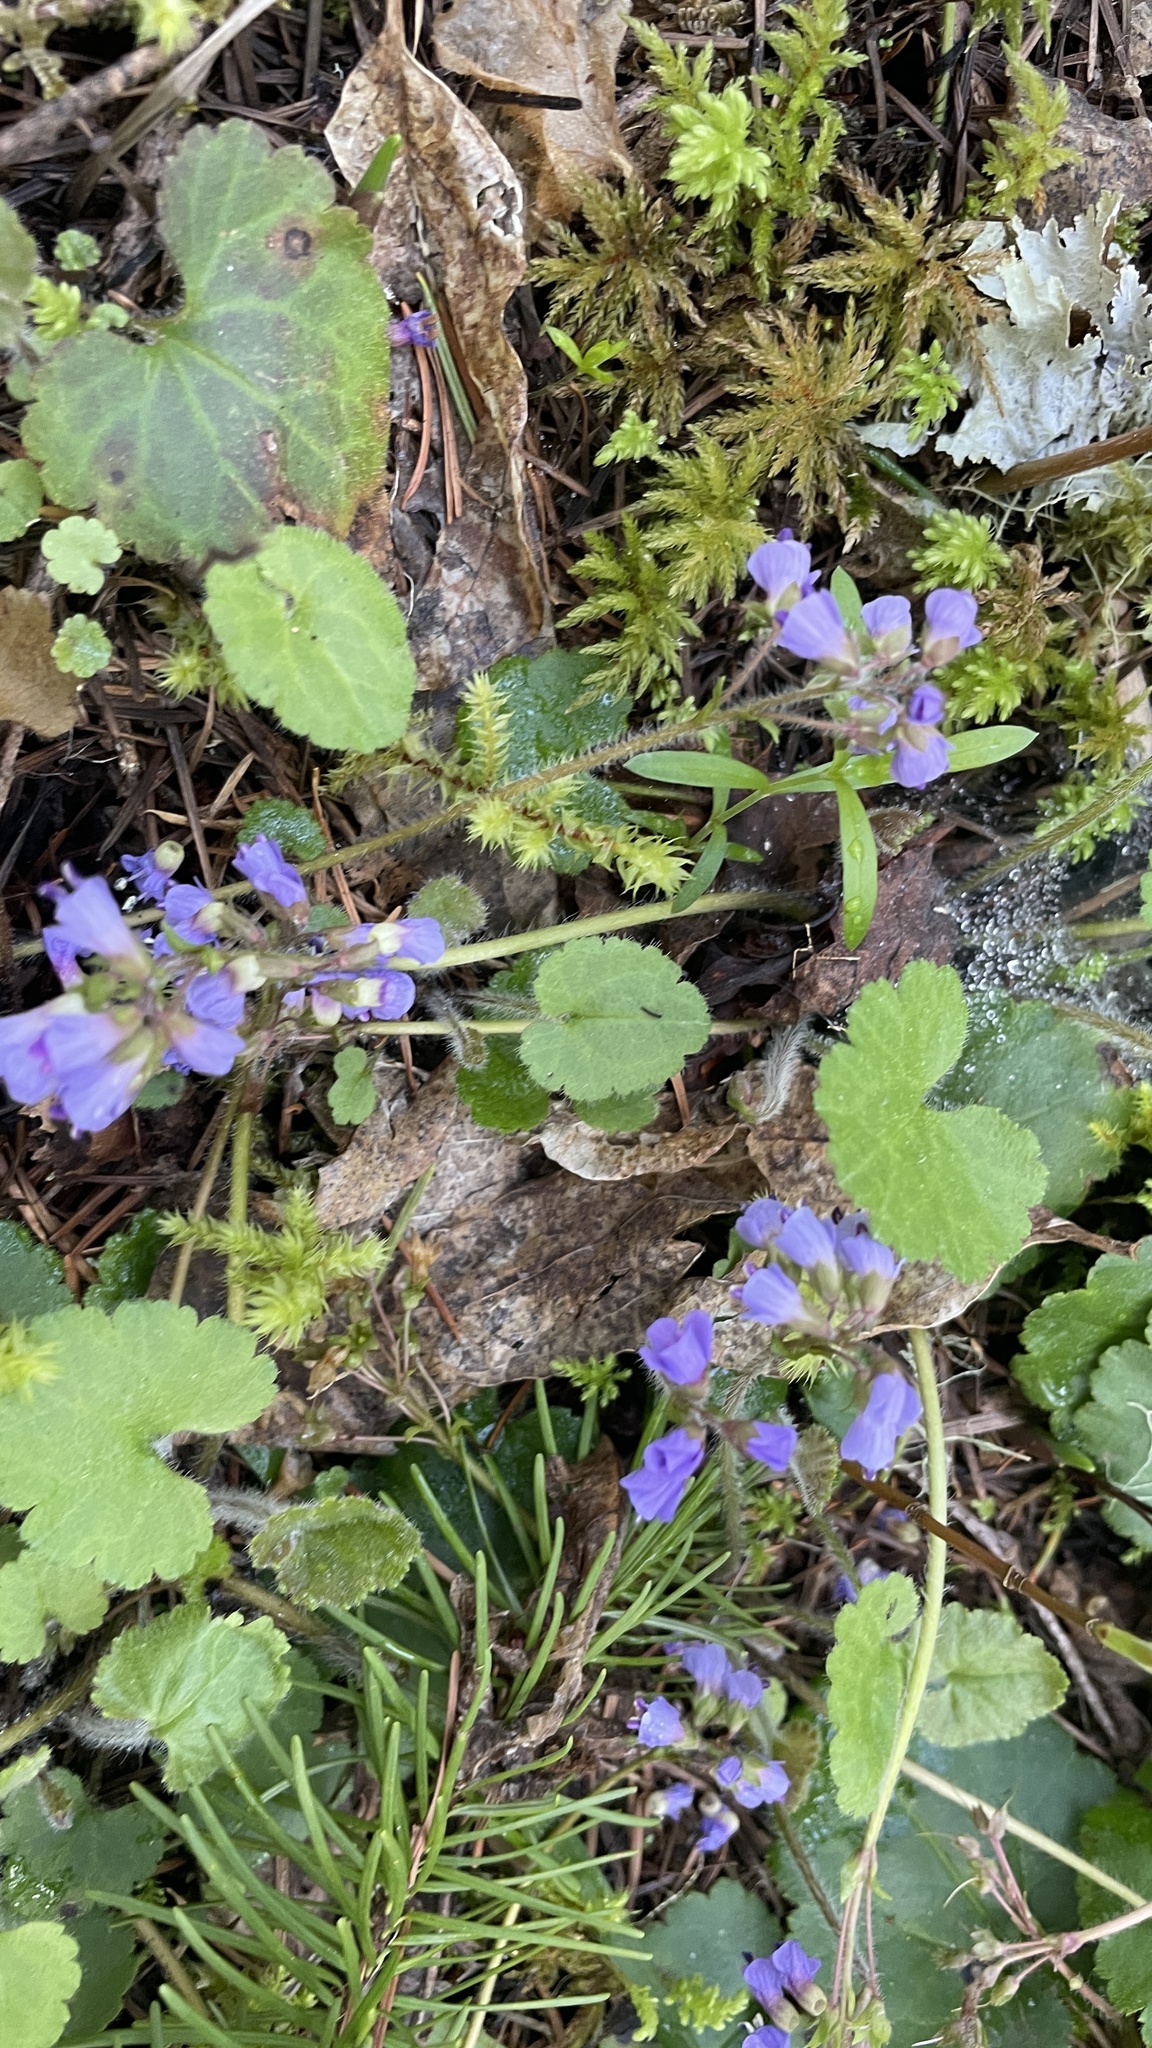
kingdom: Plantae
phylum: Tracheophyta
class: Magnoliopsida
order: Lamiales
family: Plantaginaceae
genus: Synthyris
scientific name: Synthyris reniformis
